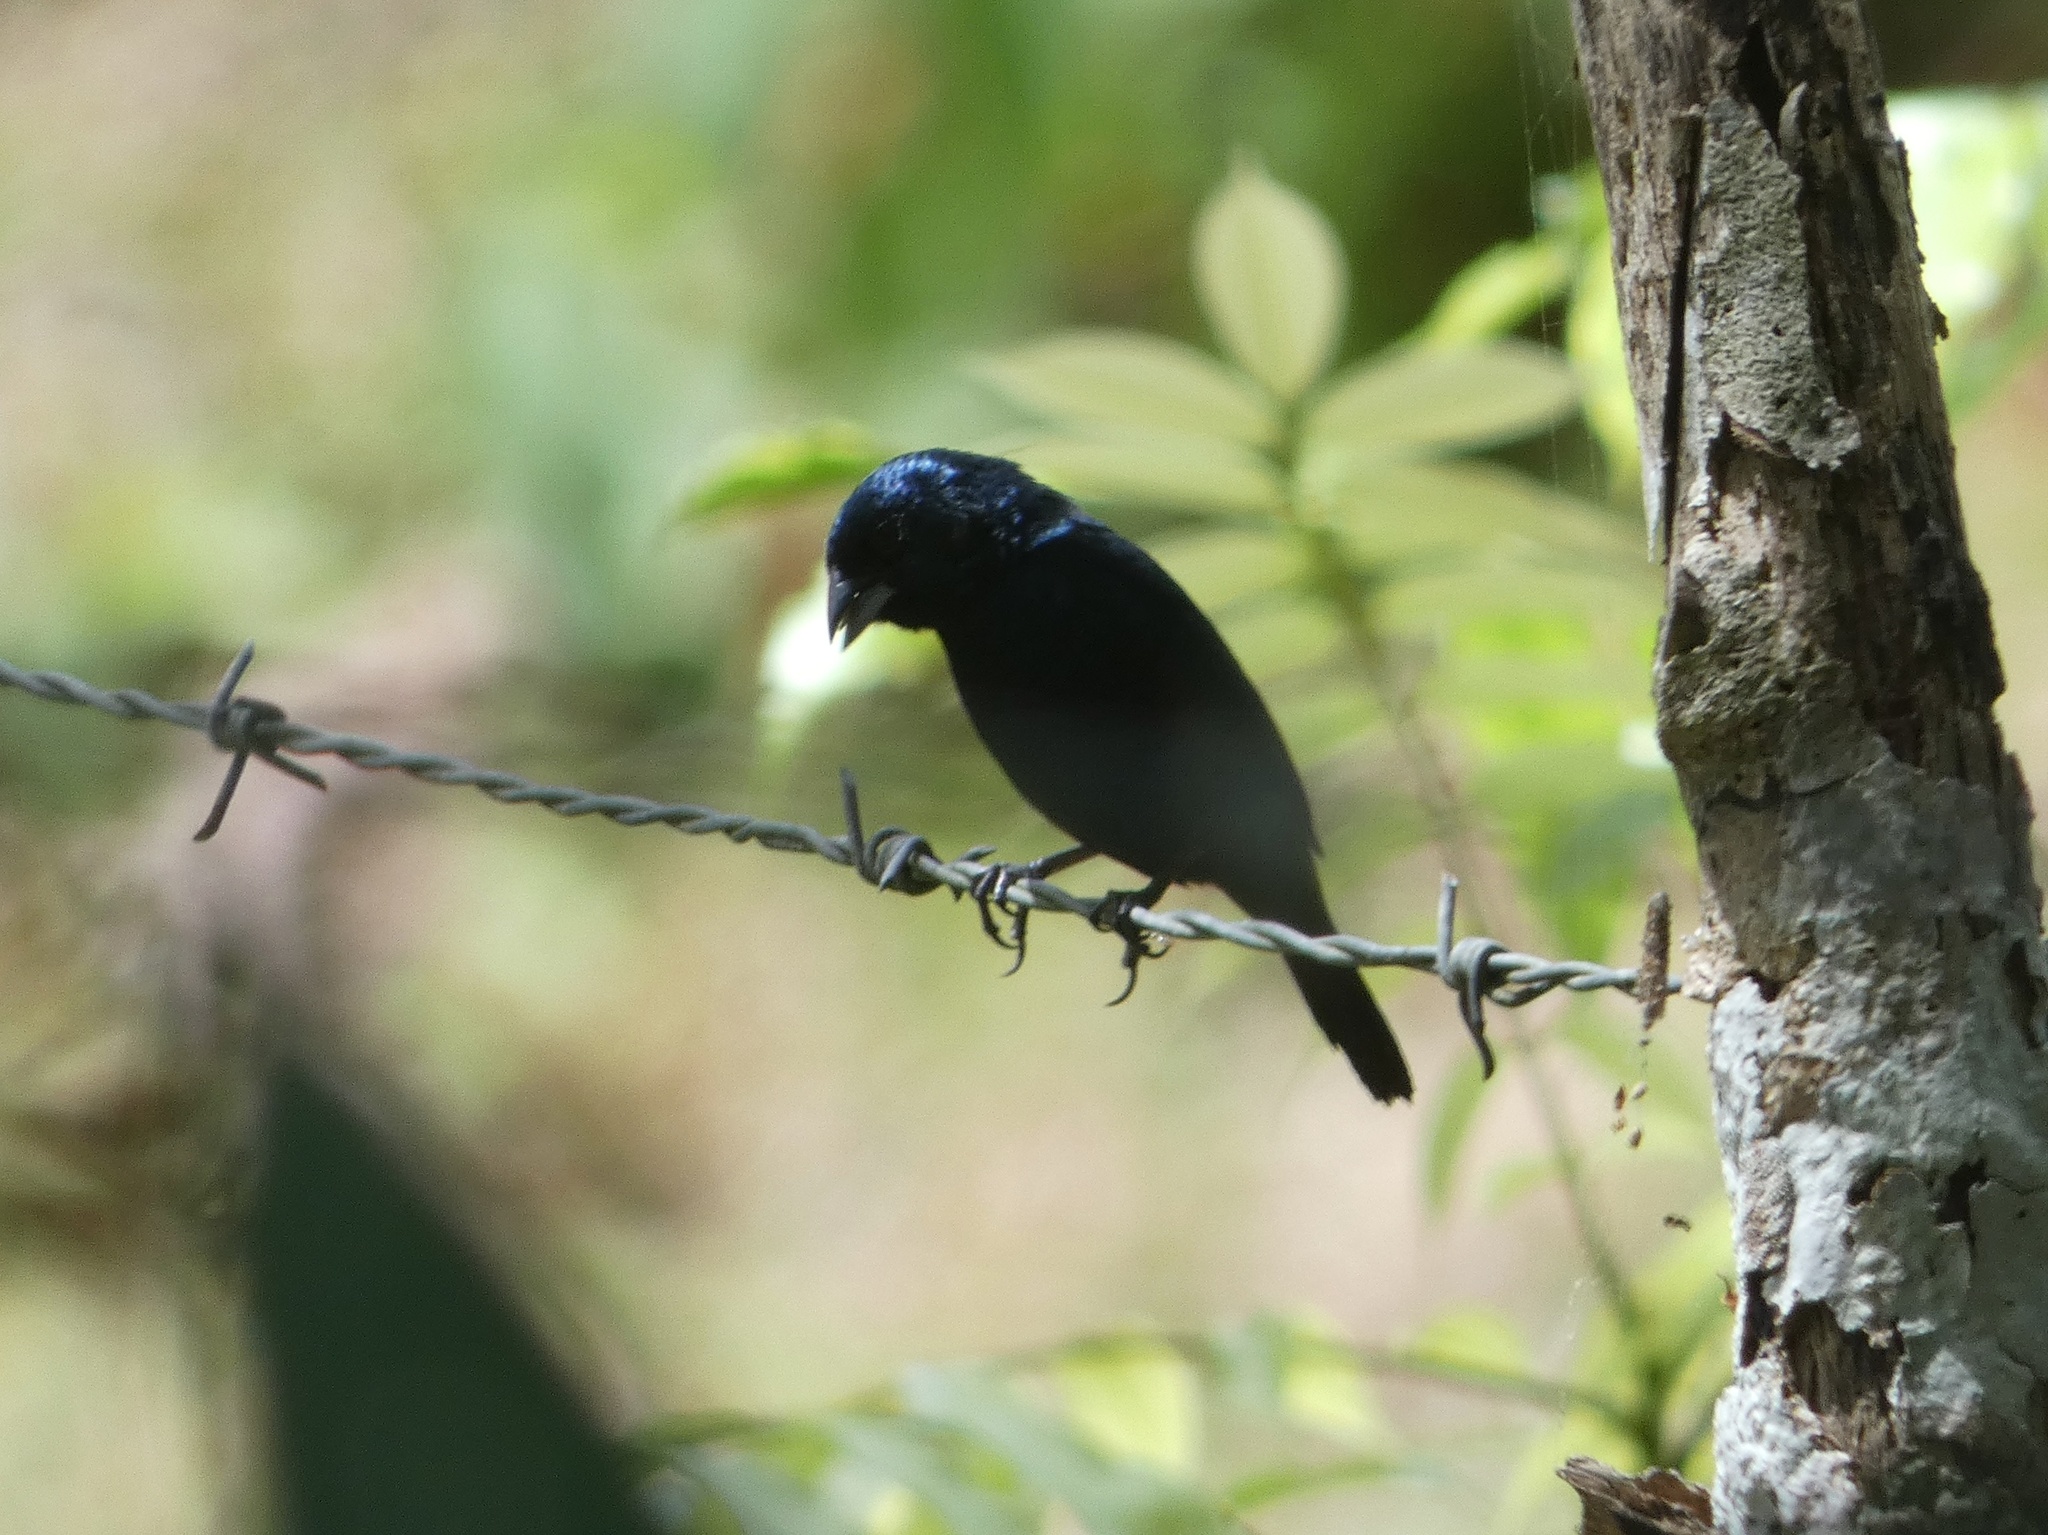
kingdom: Animalia
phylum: Chordata
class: Aves
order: Passeriformes
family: Thraupidae
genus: Volatinia
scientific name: Volatinia jacarina
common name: Blue-black grassquit
